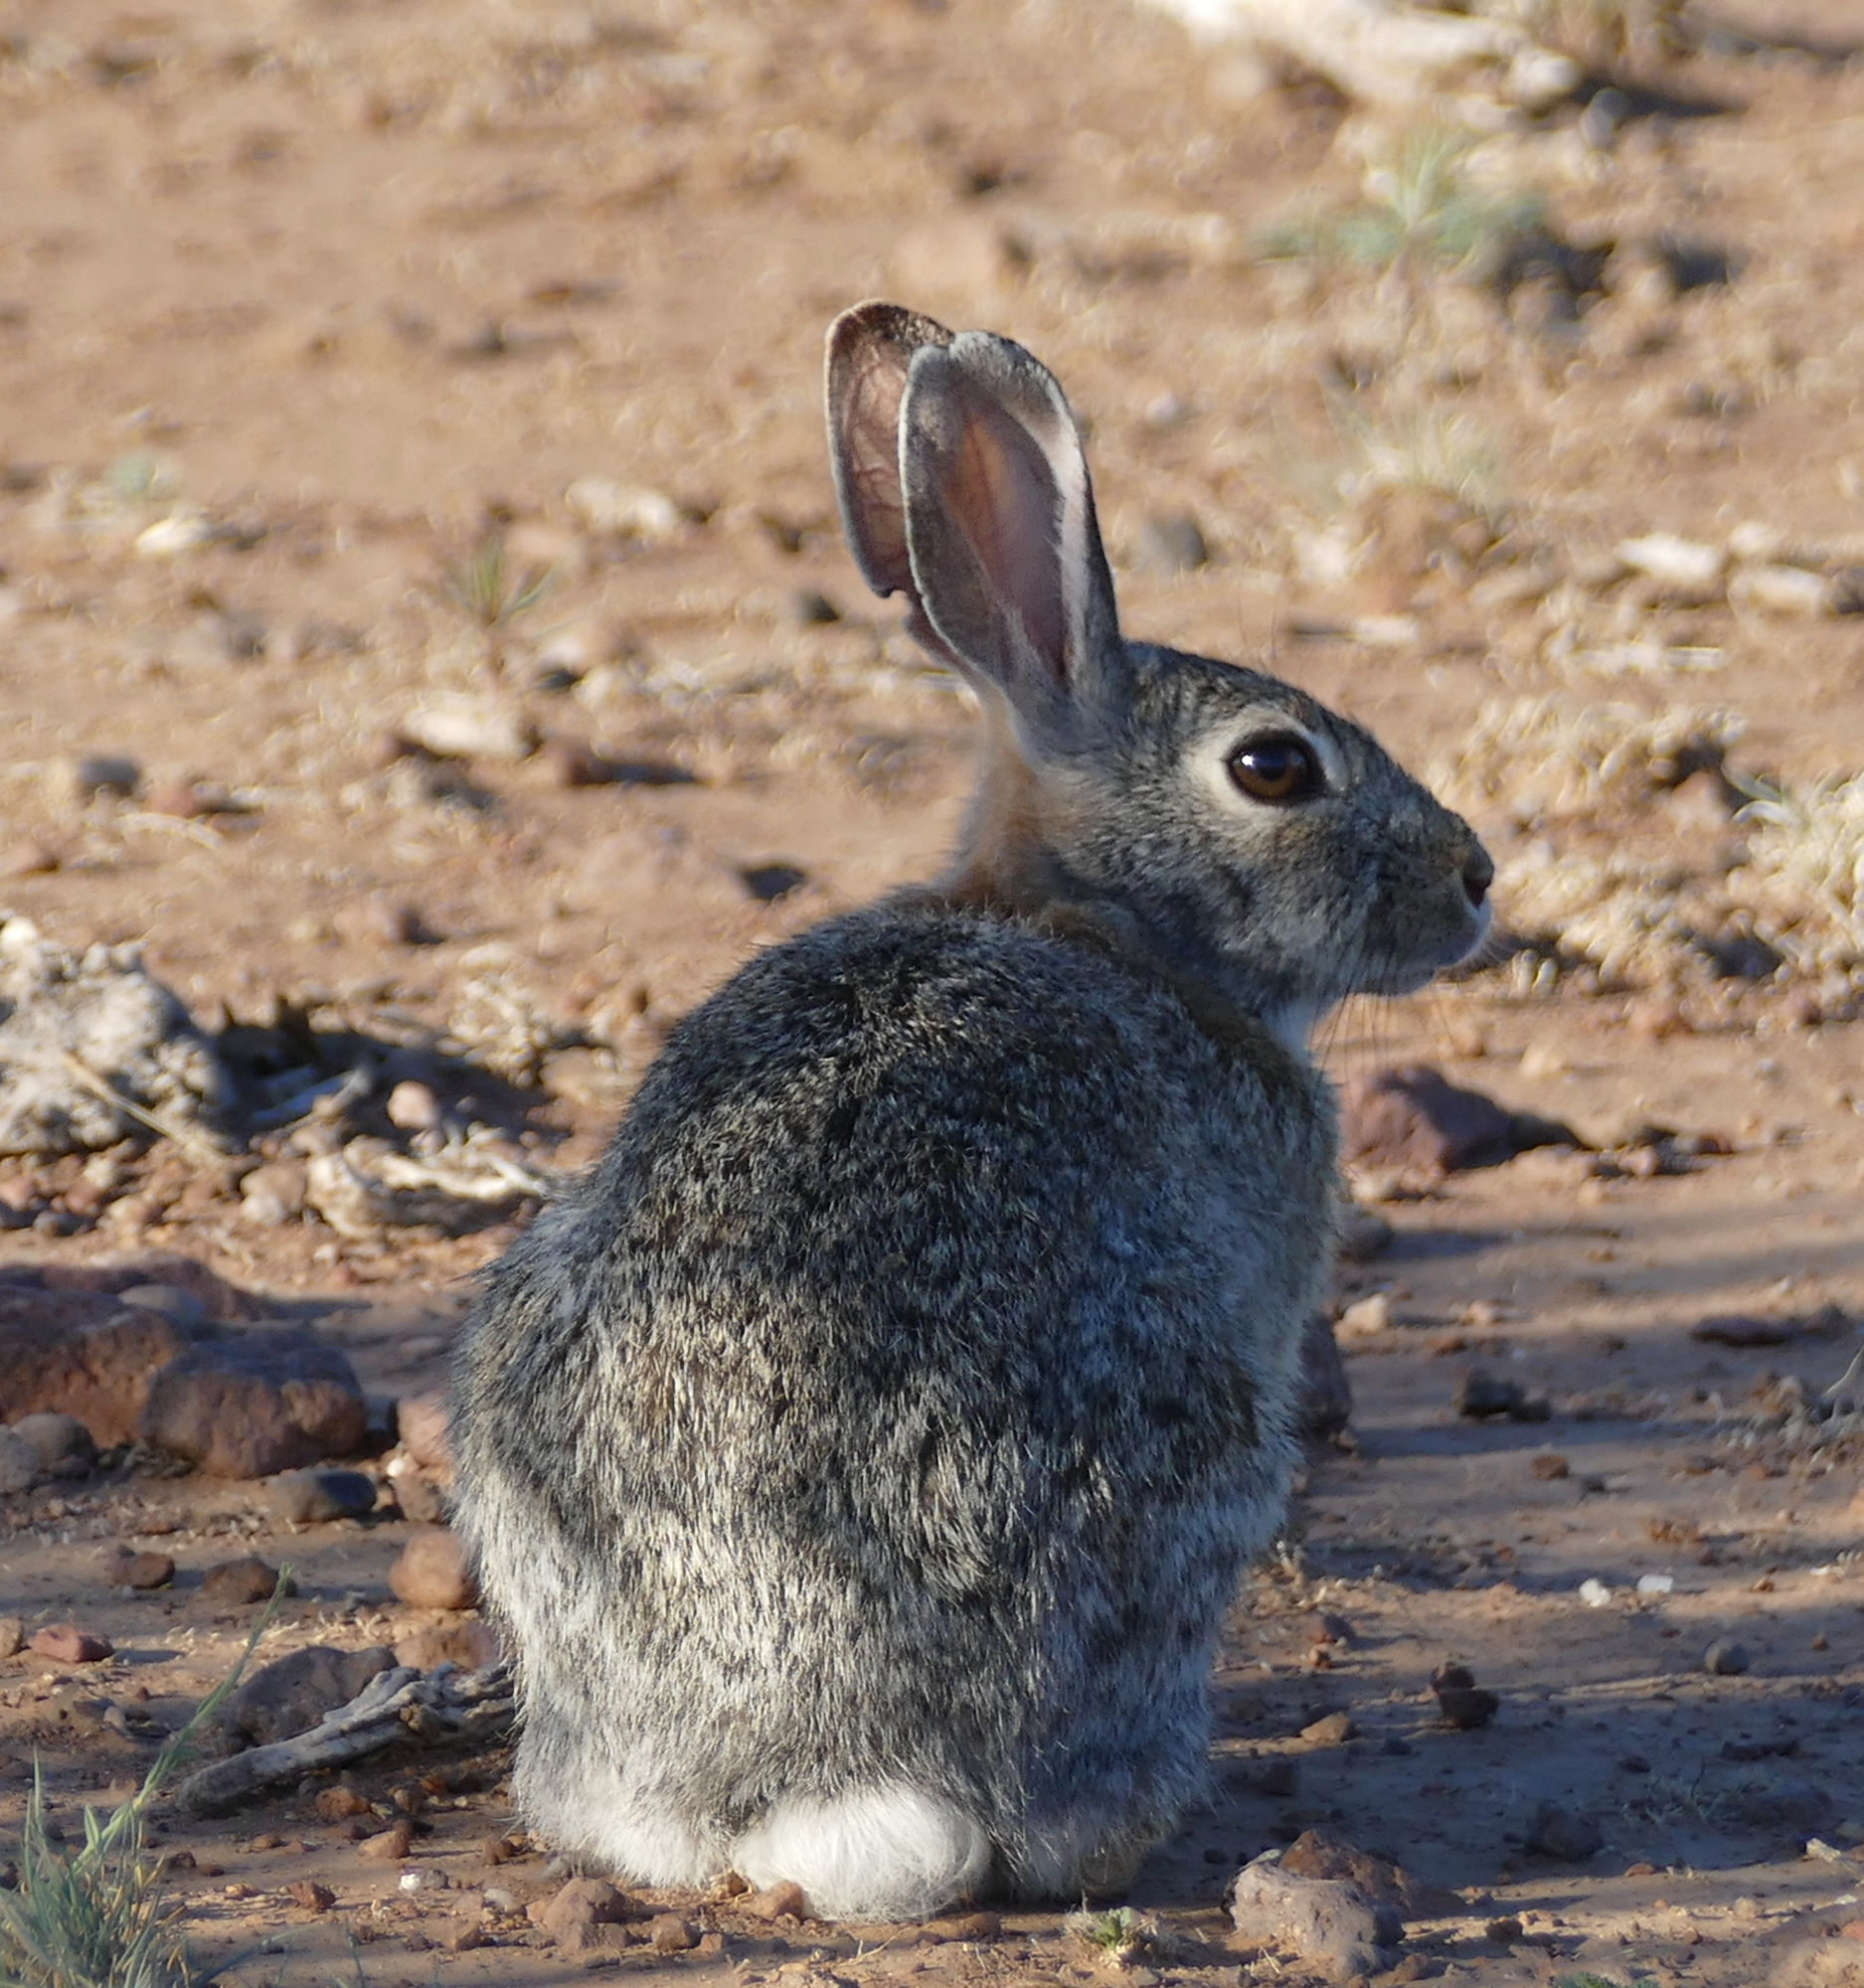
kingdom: Animalia
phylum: Chordata
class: Mammalia
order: Lagomorpha
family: Leporidae
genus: Sylvilagus
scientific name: Sylvilagus audubonii
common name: Desert cottontail
